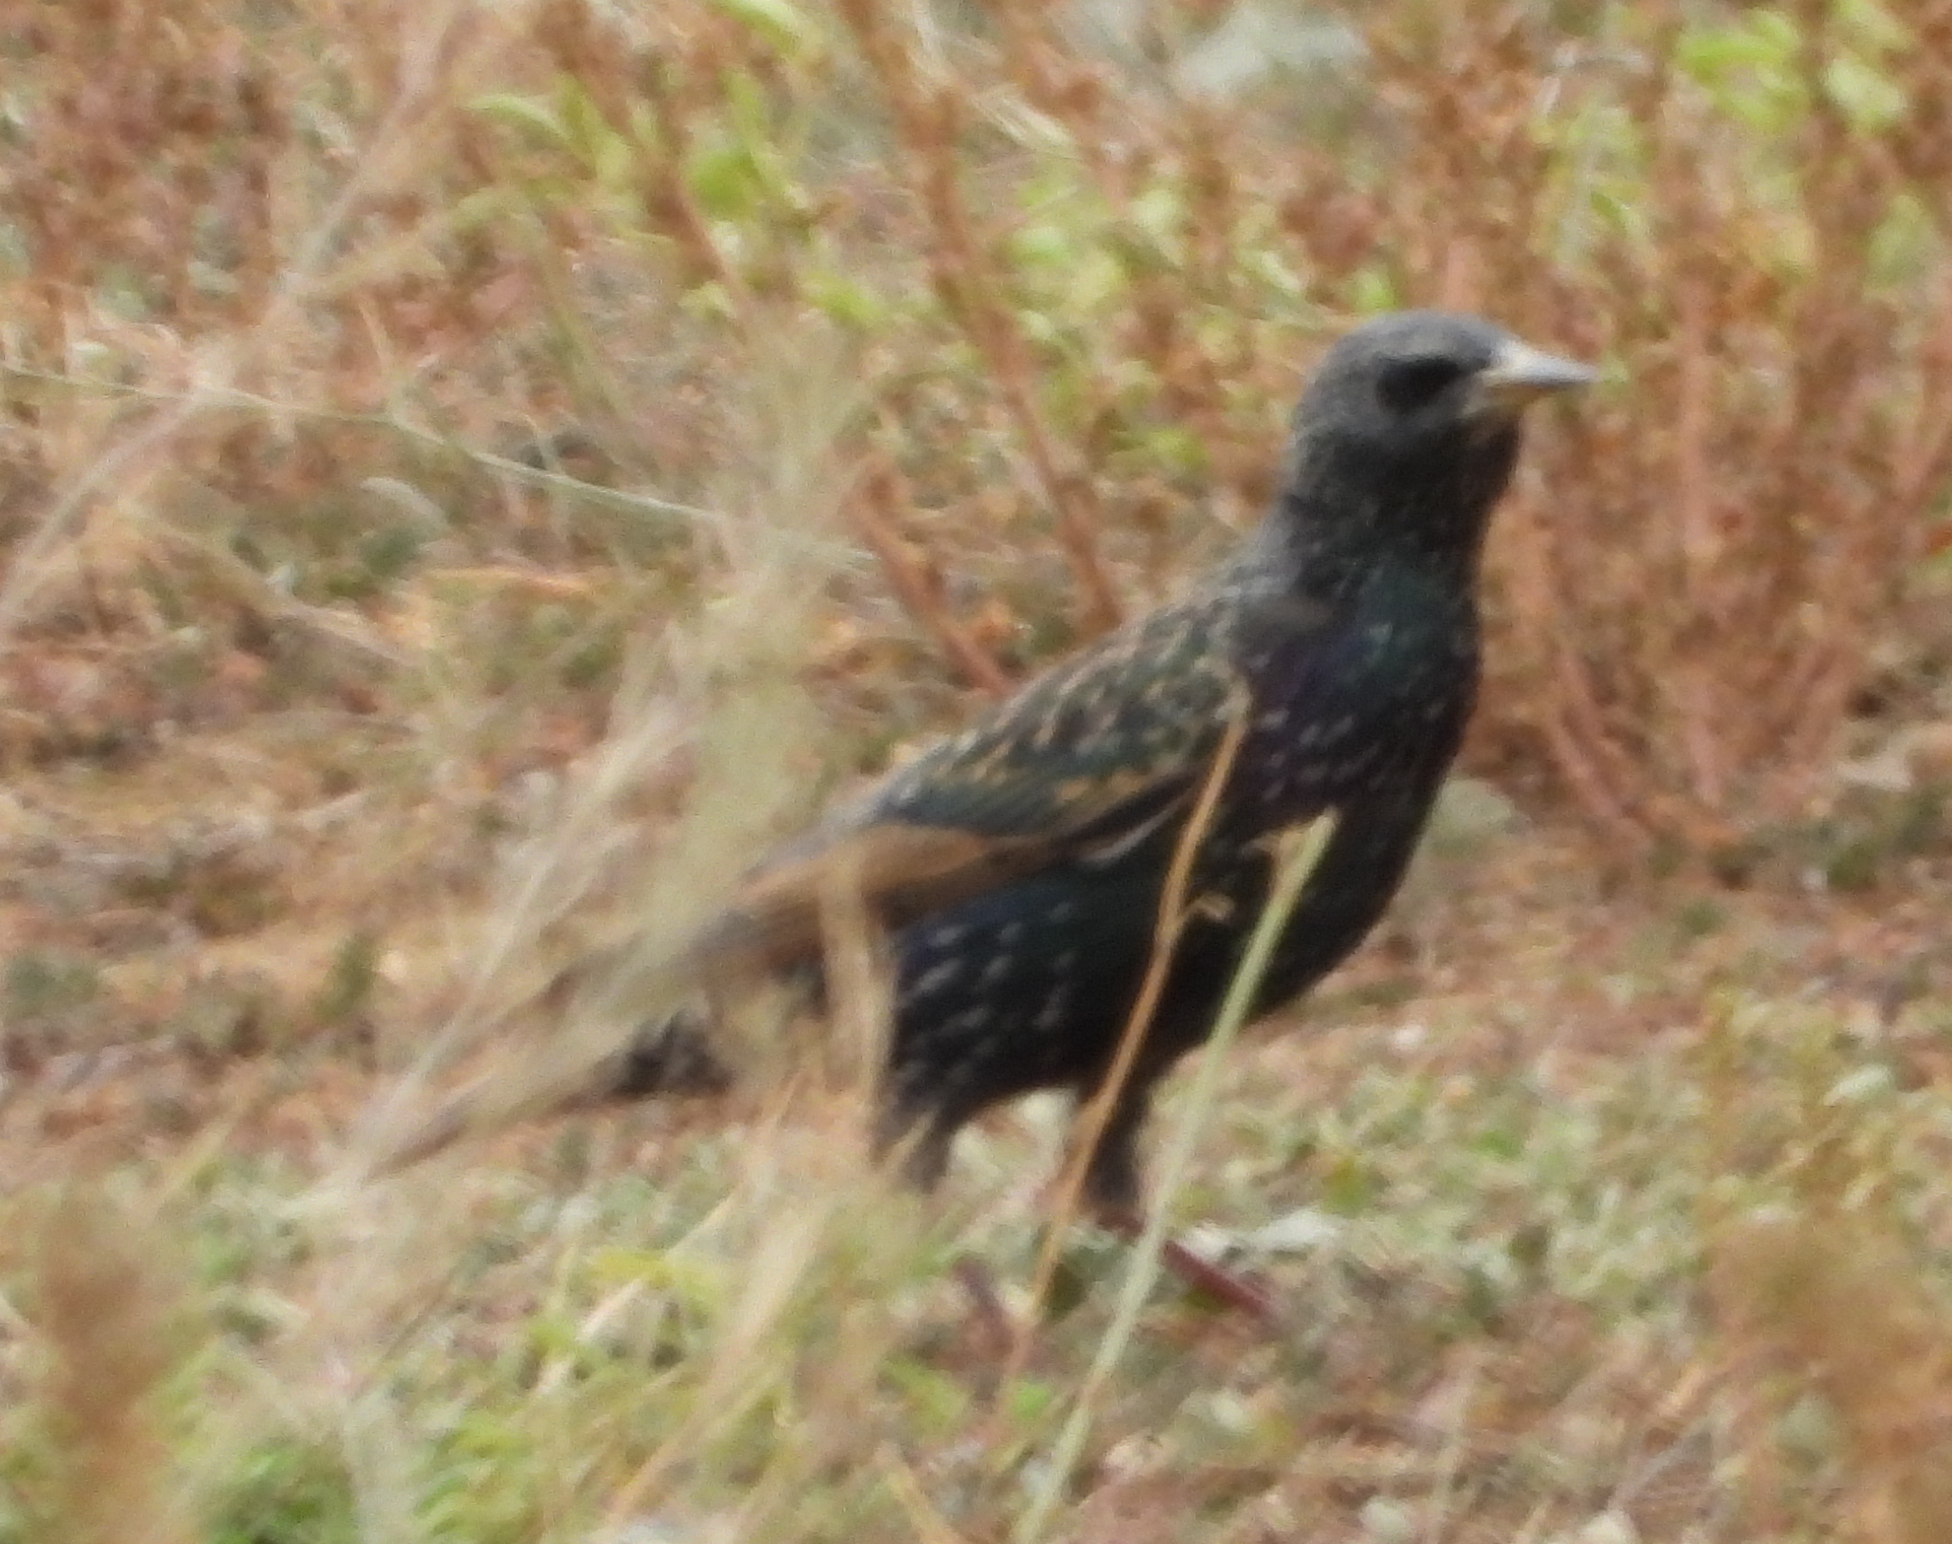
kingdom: Animalia
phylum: Chordata
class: Aves
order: Passeriformes
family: Sturnidae
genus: Sturnus
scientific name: Sturnus vulgaris
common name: Common starling
